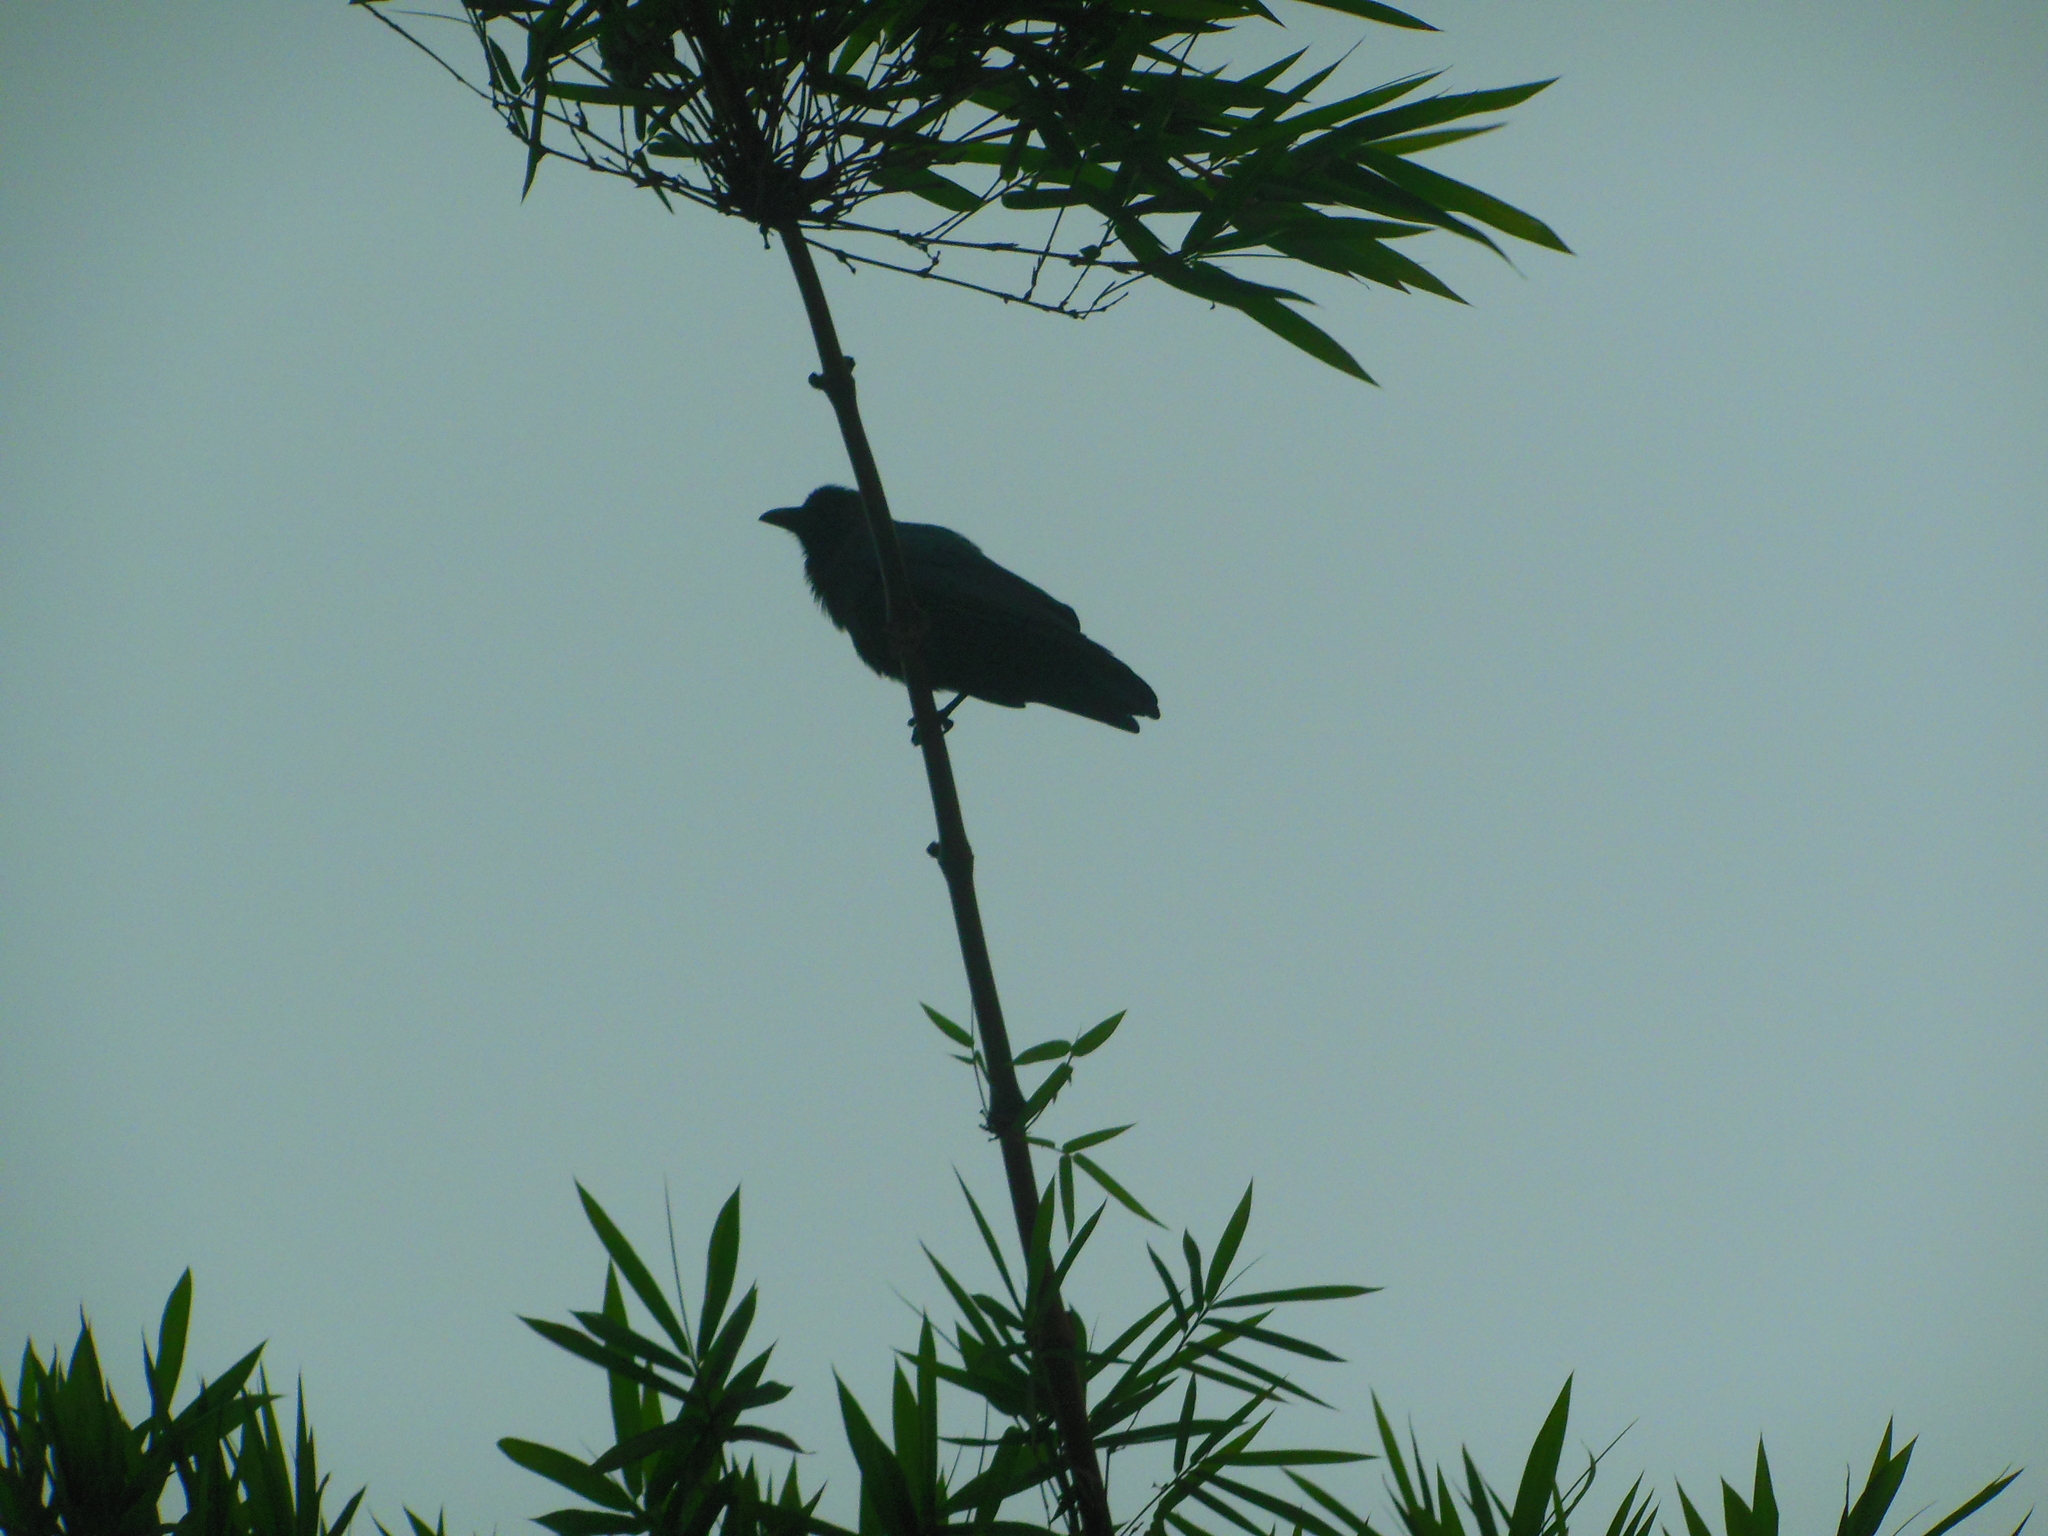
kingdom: Animalia
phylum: Chordata
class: Aves
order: Passeriformes
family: Corvidae
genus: Corvus
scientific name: Corvus macrorhynchos
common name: Large-billed crow
